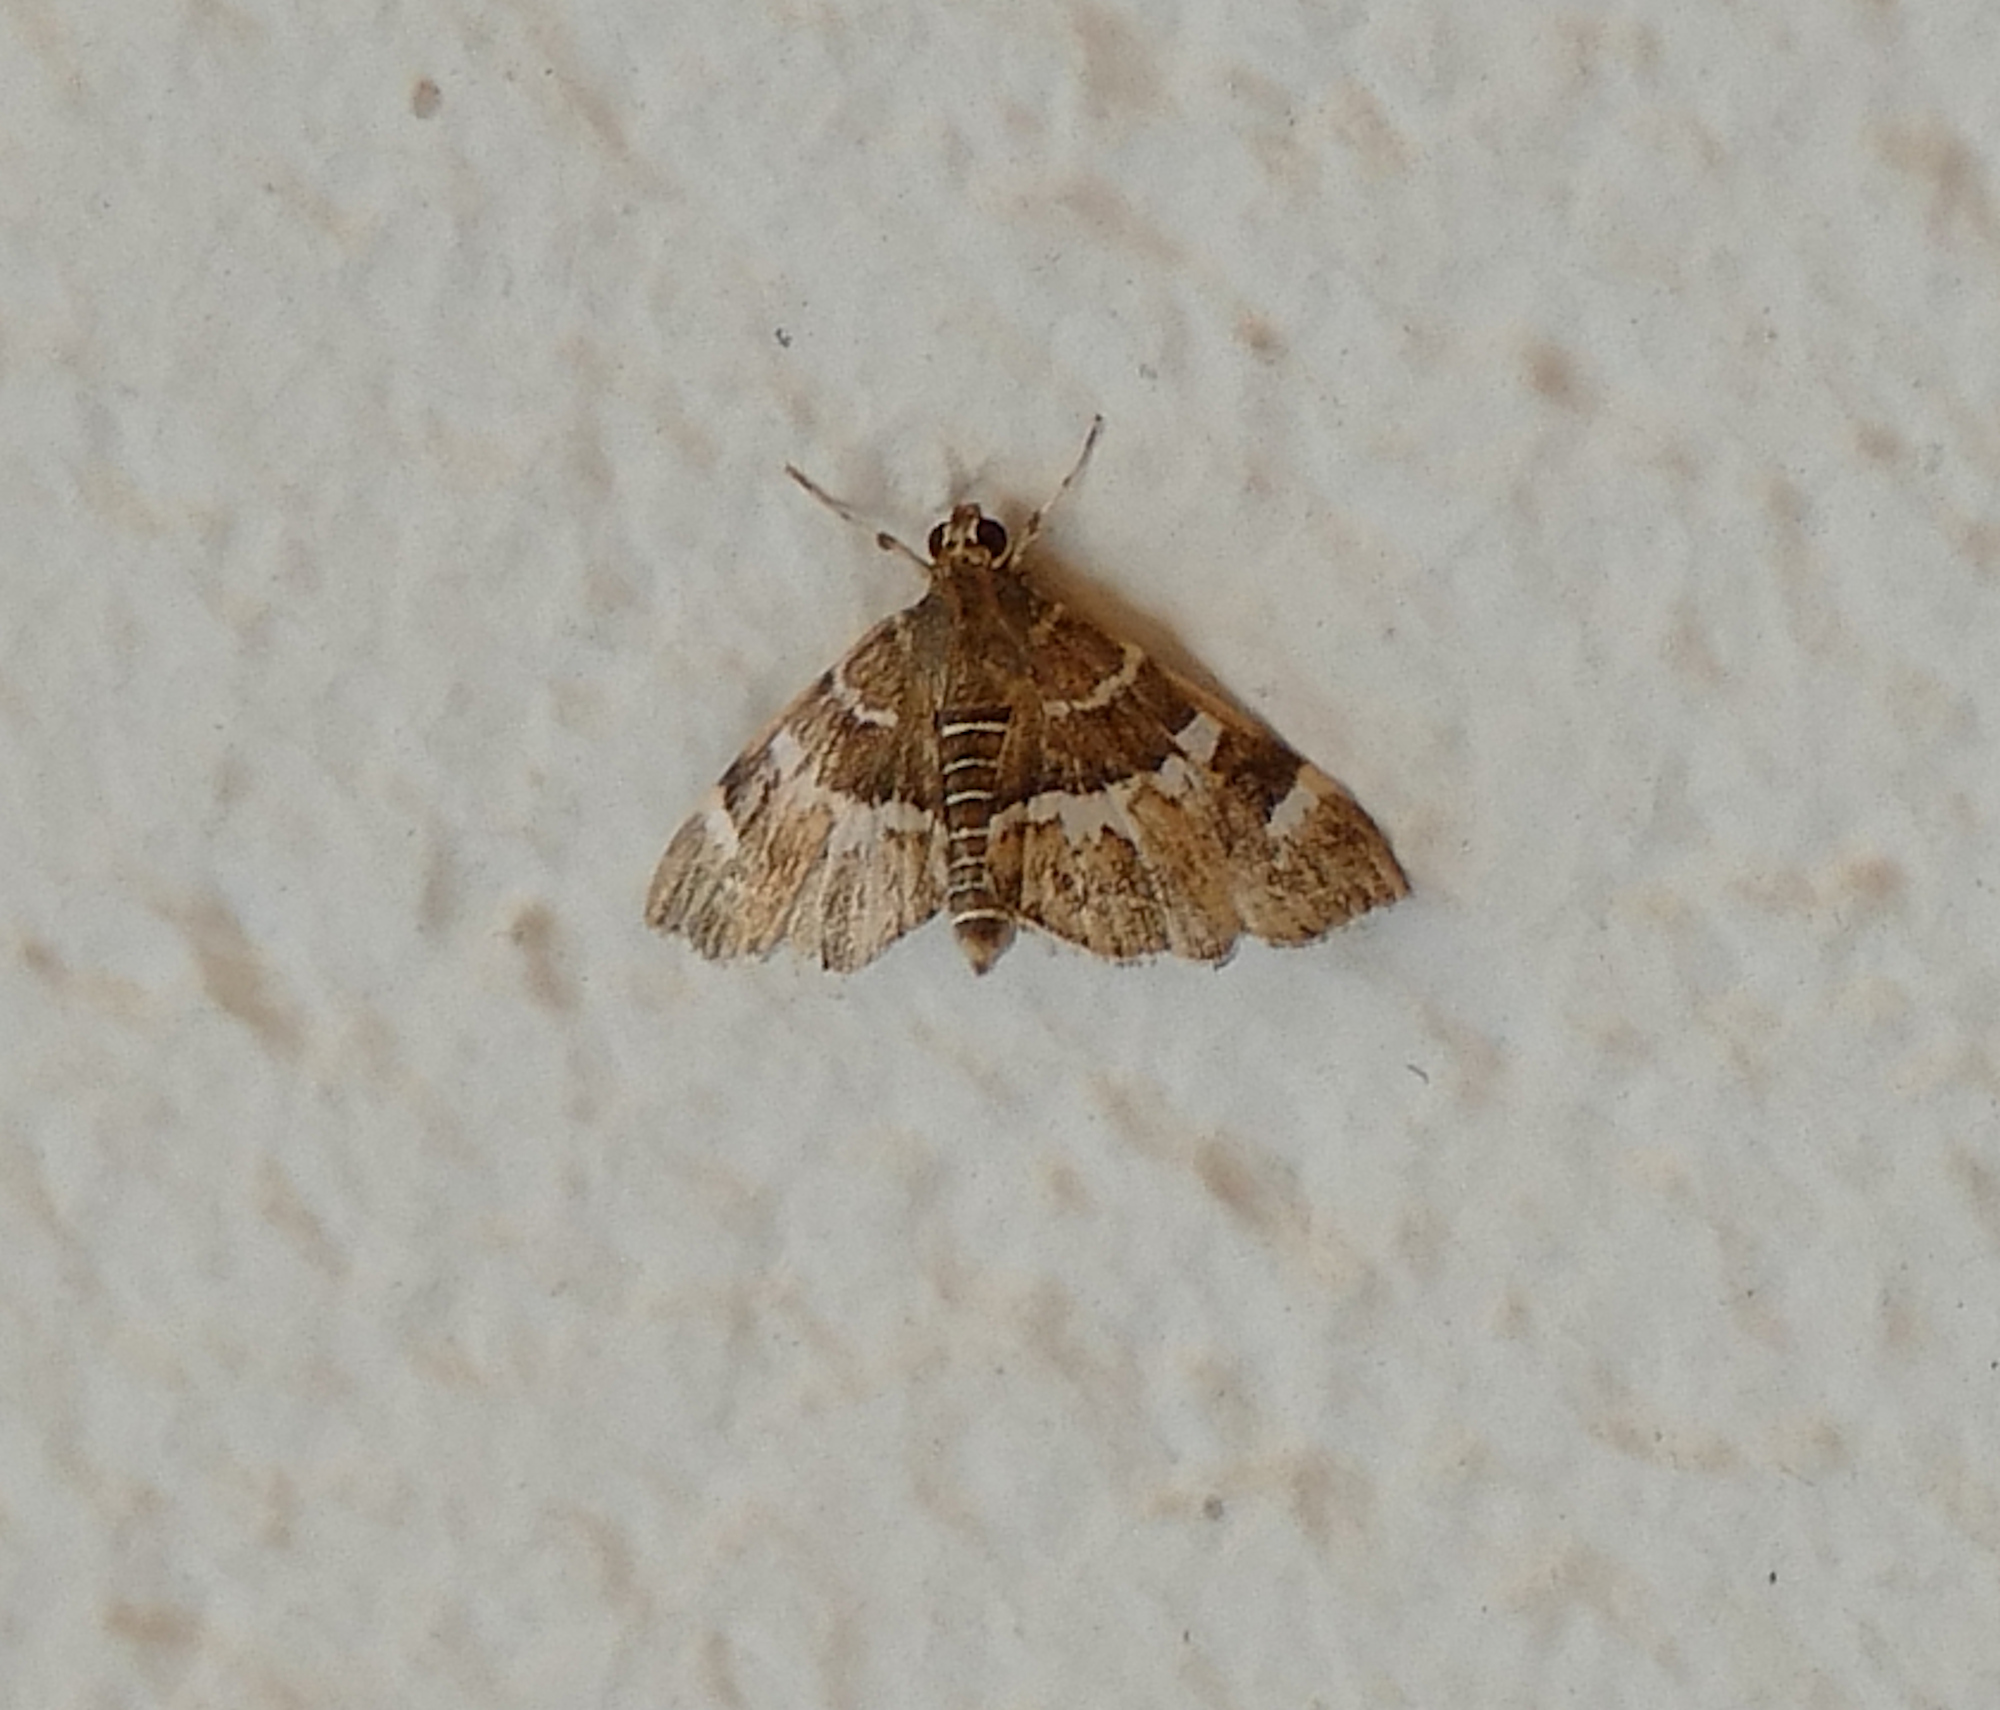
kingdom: Animalia
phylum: Arthropoda
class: Insecta
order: Lepidoptera
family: Crambidae
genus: Hymenia
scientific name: Hymenia perspectalis
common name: Spotted beet webworm
